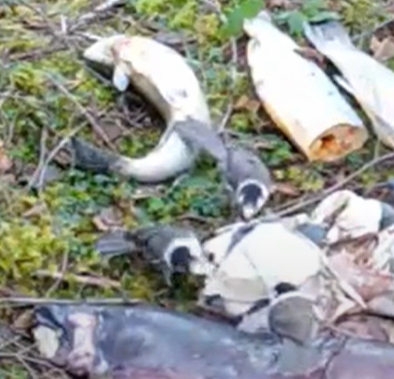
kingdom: Animalia
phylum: Chordata
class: Aves
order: Passeriformes
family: Corvidae
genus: Perisoreus
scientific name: Perisoreus canadensis
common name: Gray jay
